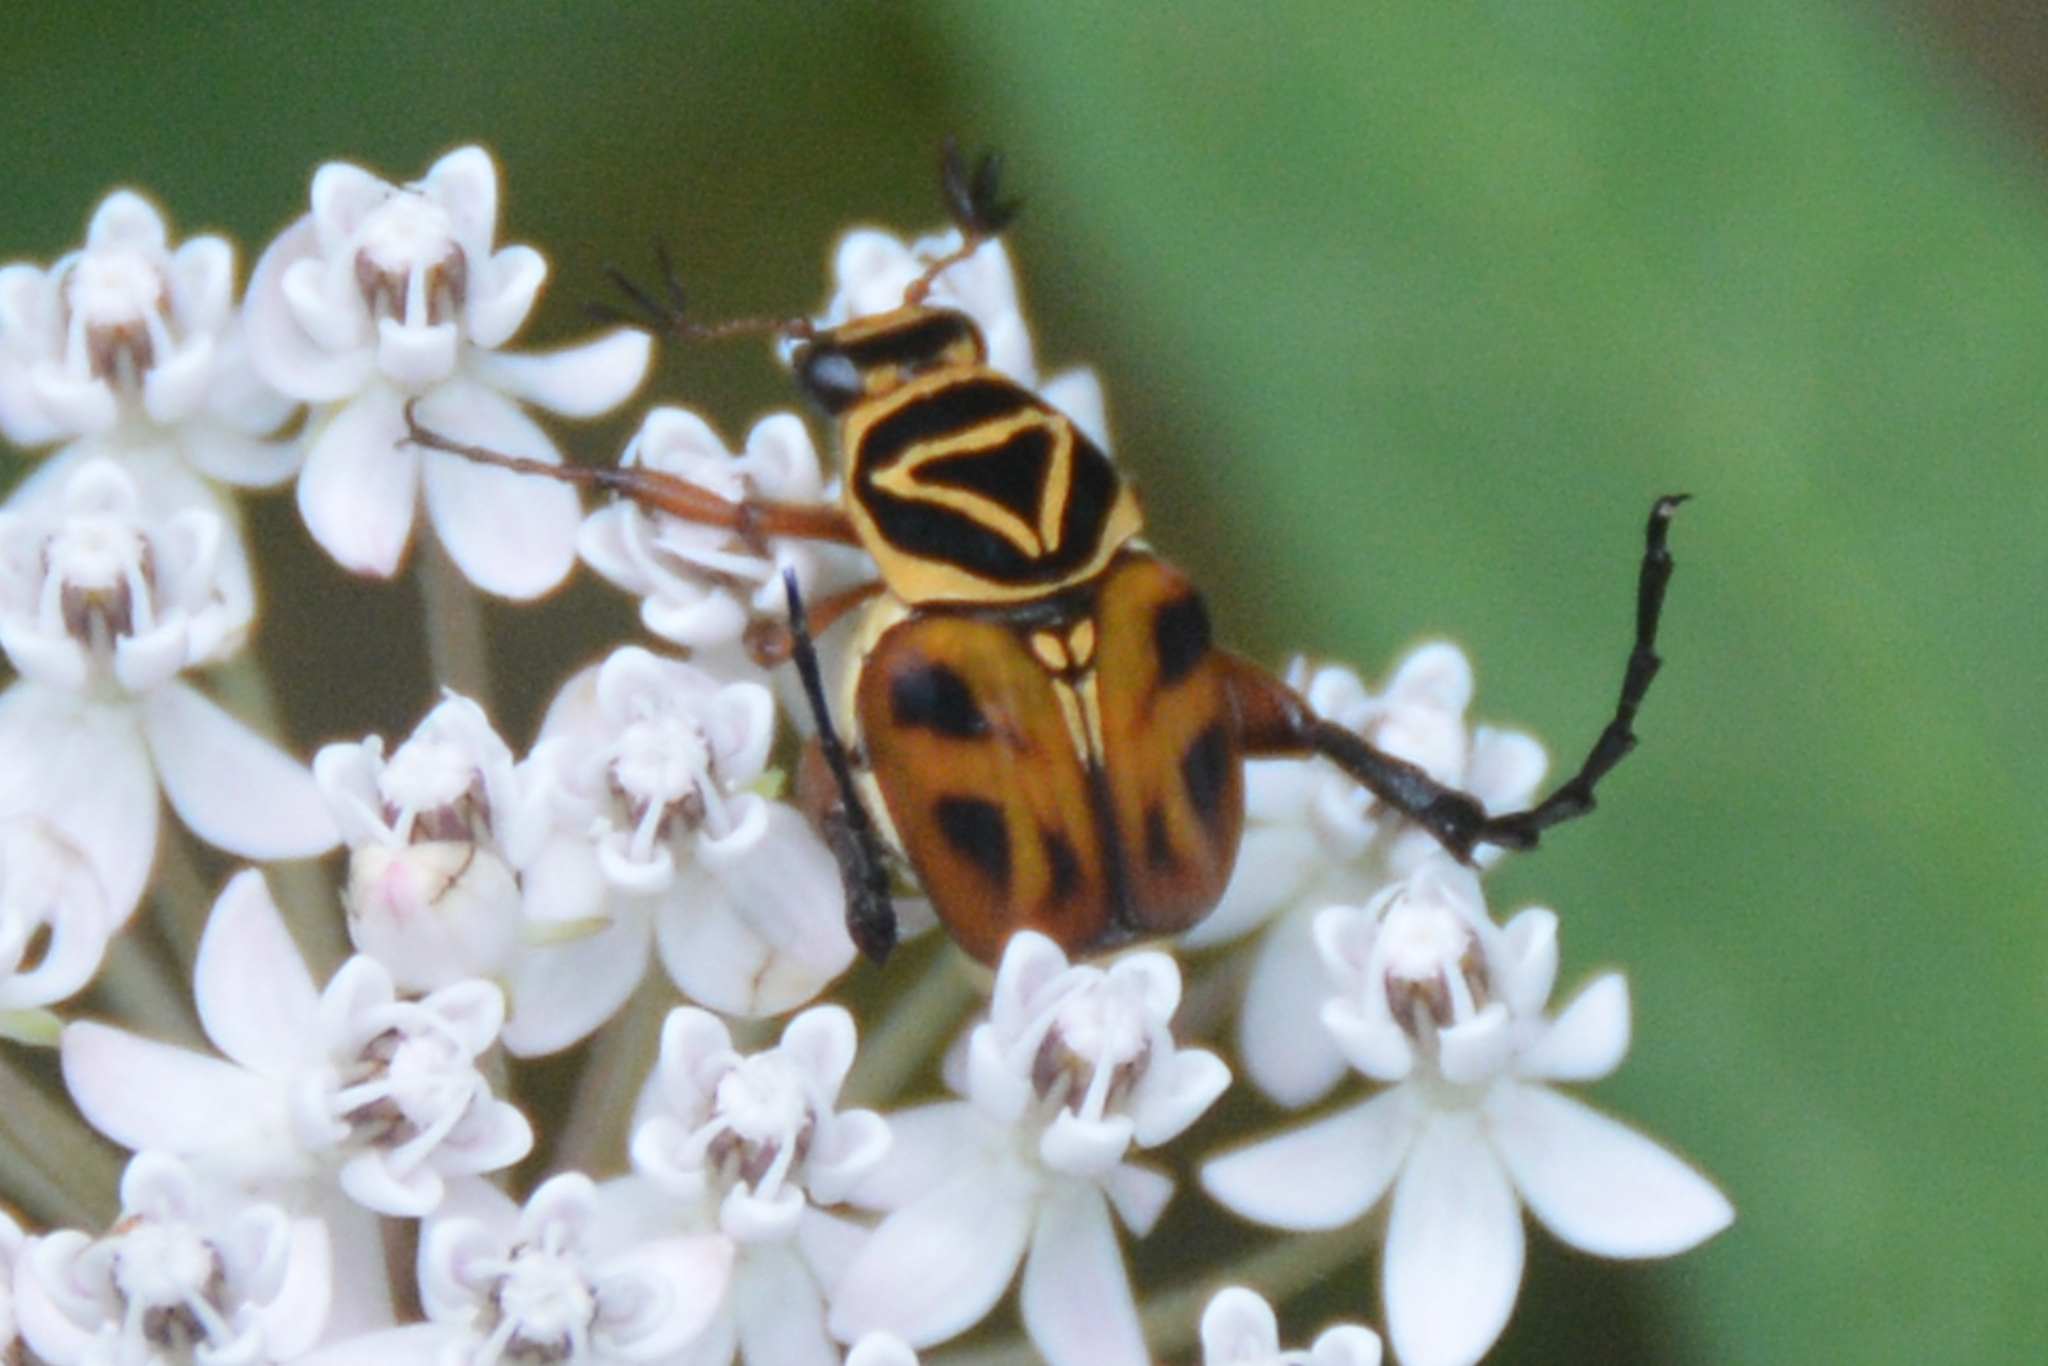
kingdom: Animalia
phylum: Arthropoda
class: Insecta
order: Coleoptera
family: Scarabaeidae
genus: Trigonopeltastes
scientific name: Trigonopeltastes delta
